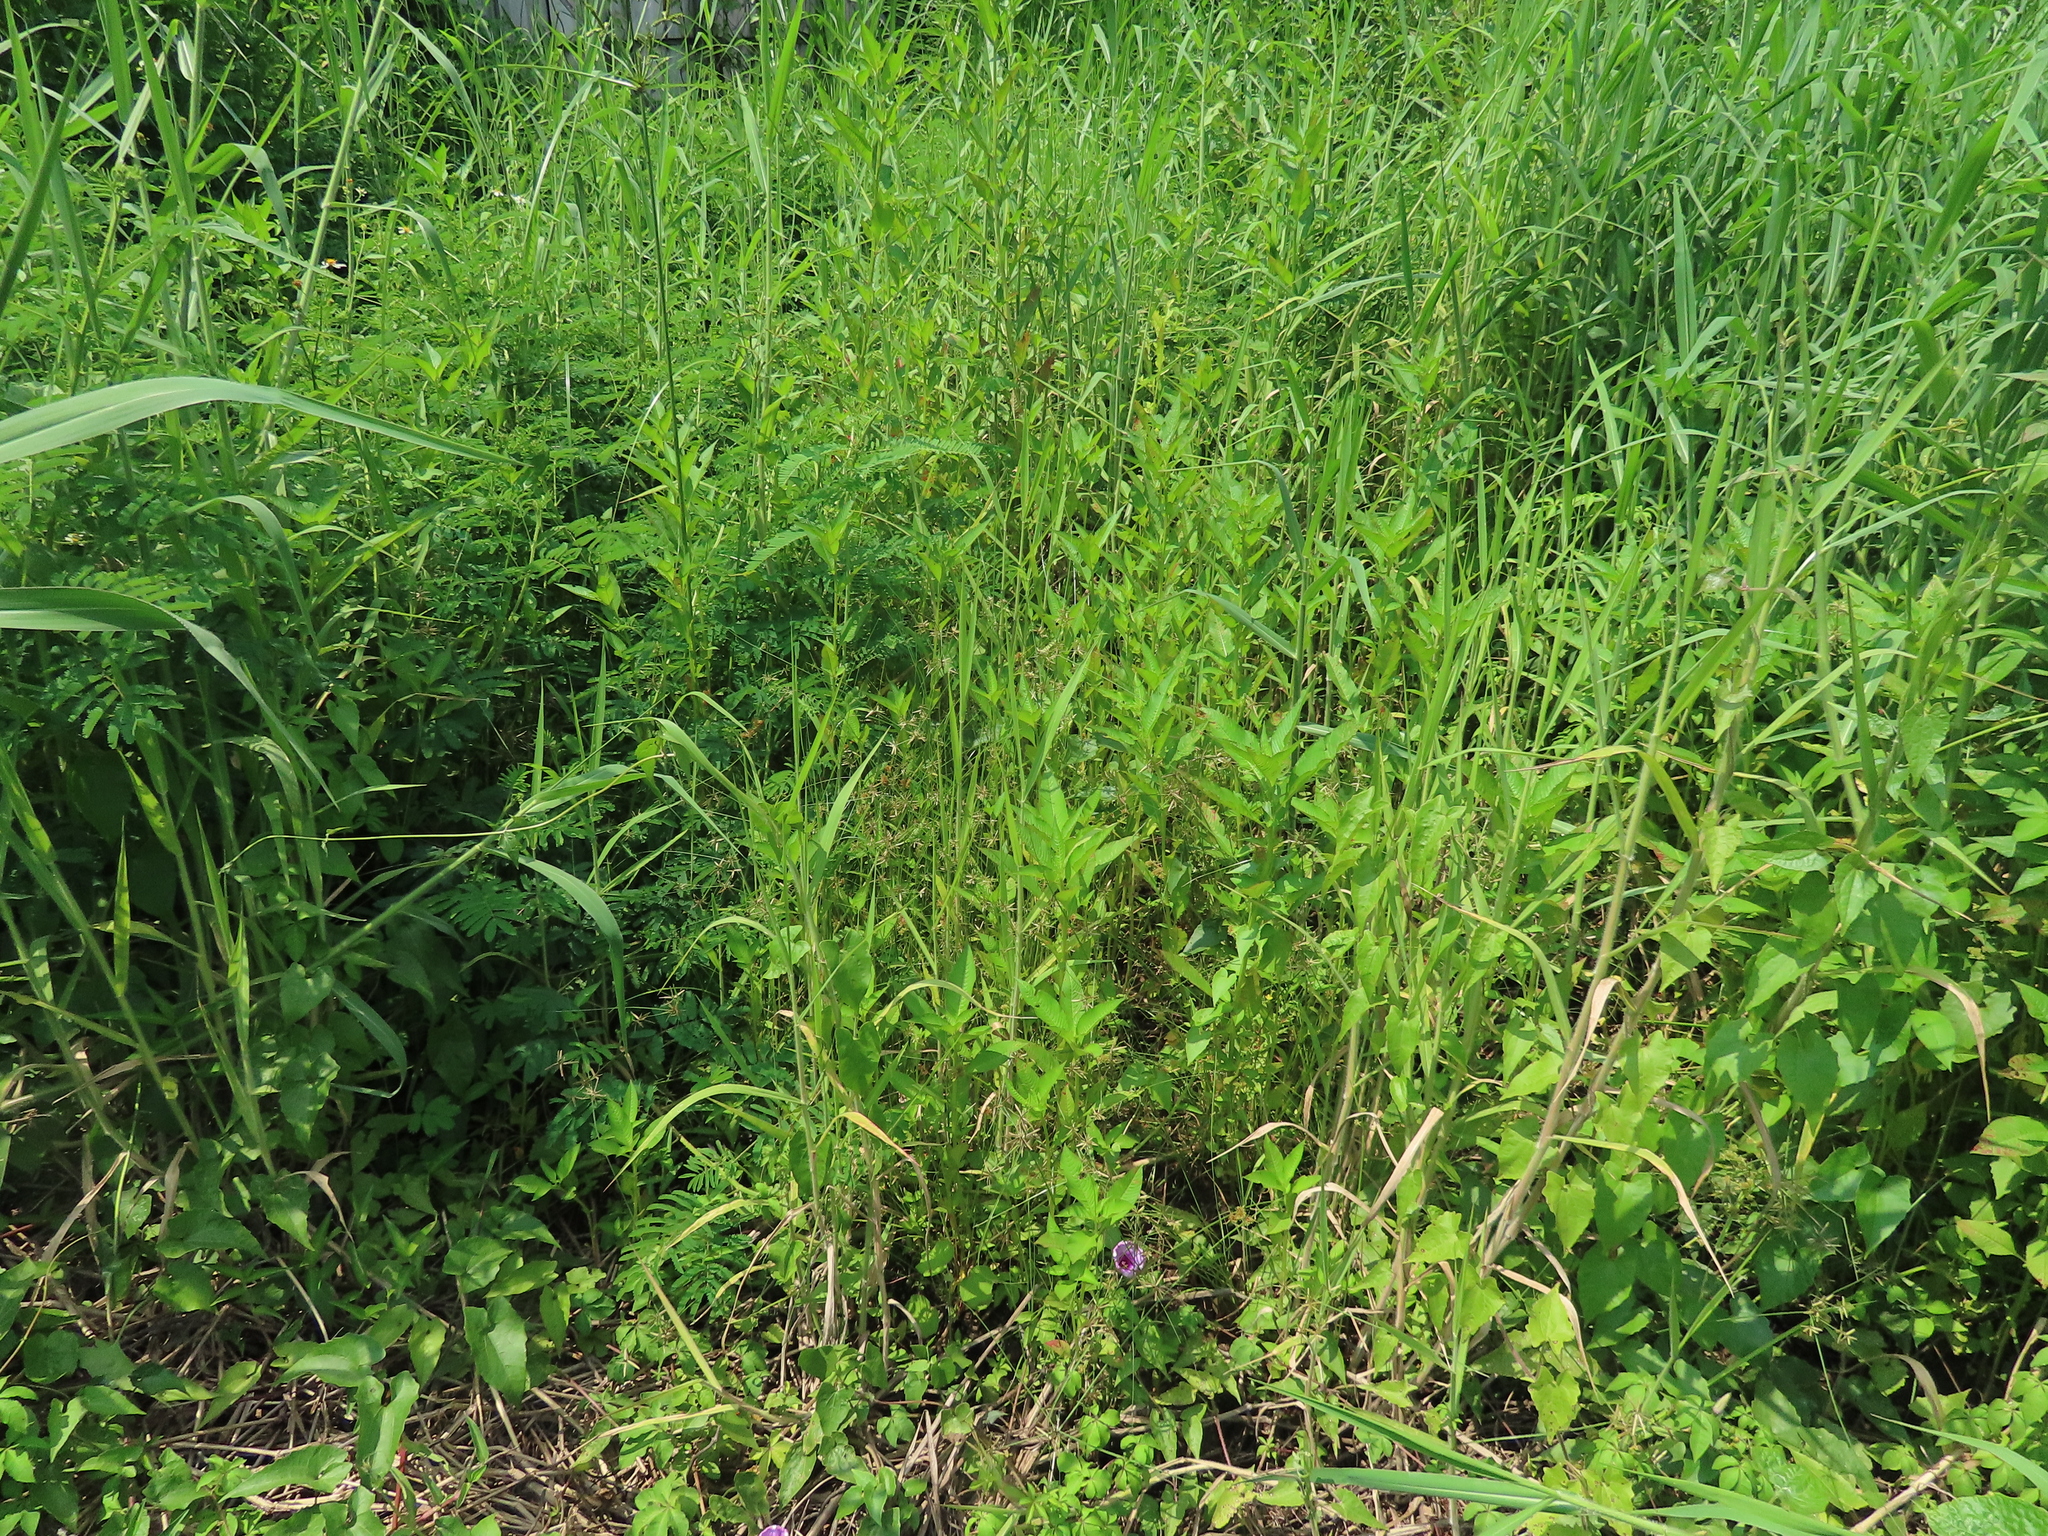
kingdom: Plantae
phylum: Tracheophyta
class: Liliopsida
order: Poales
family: Cyperaceae
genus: Cyperus
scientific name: Cyperus flavidus
